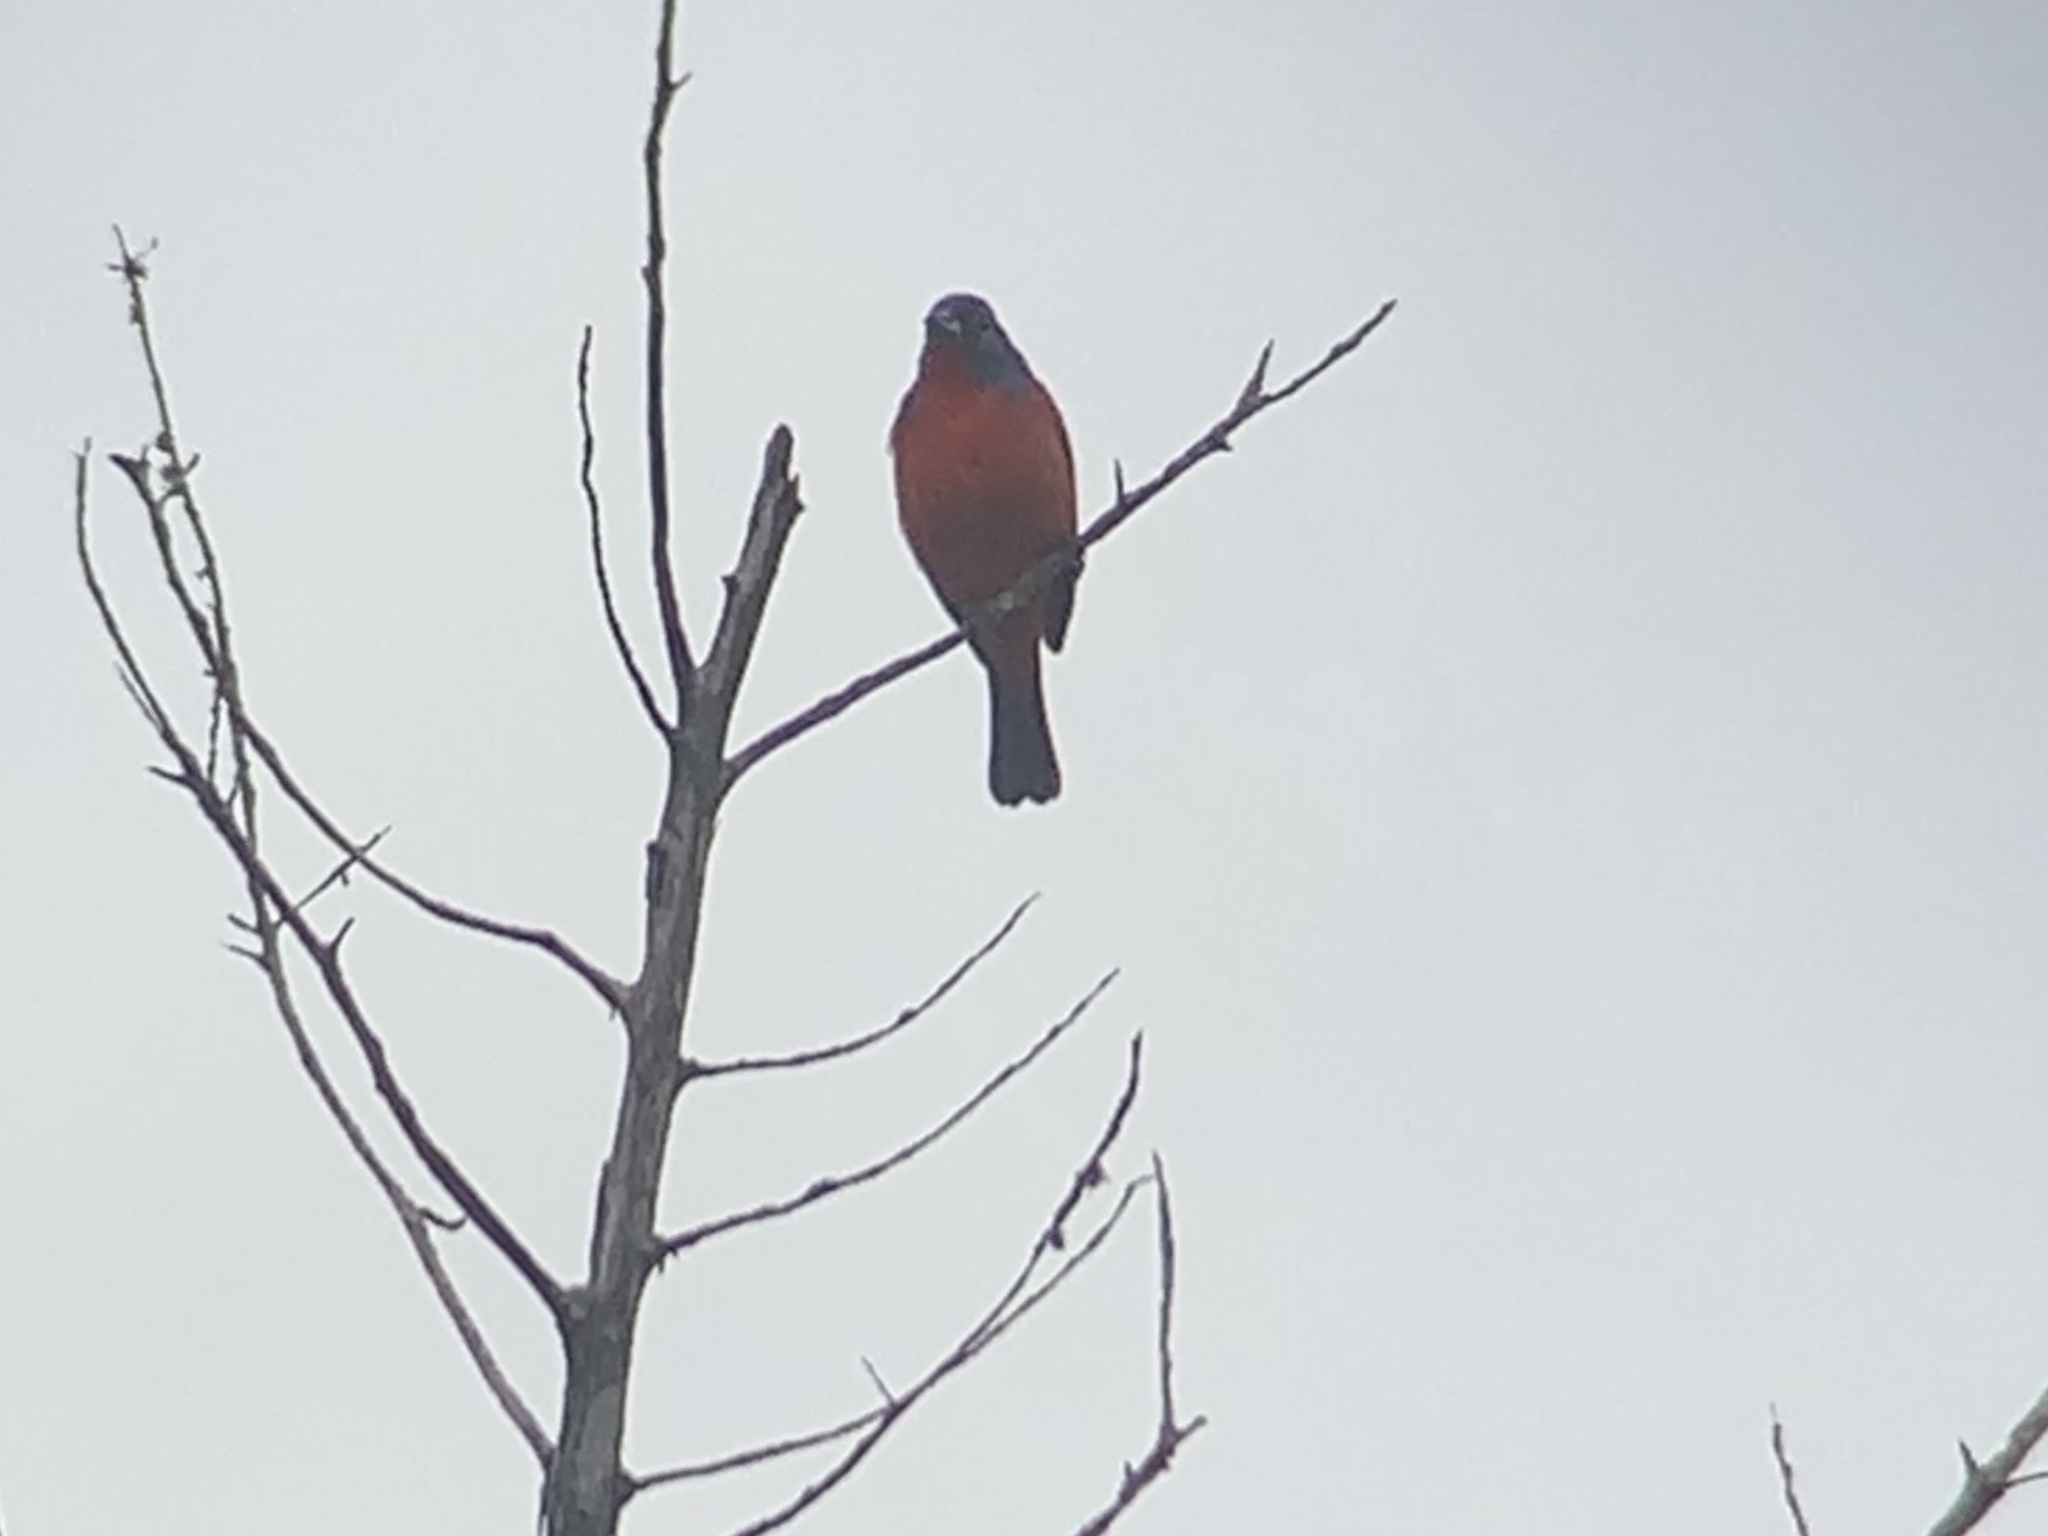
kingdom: Animalia
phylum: Chordata
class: Aves
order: Passeriformes
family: Cardinalidae
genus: Passerina
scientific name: Passerina ciris
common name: Painted bunting
